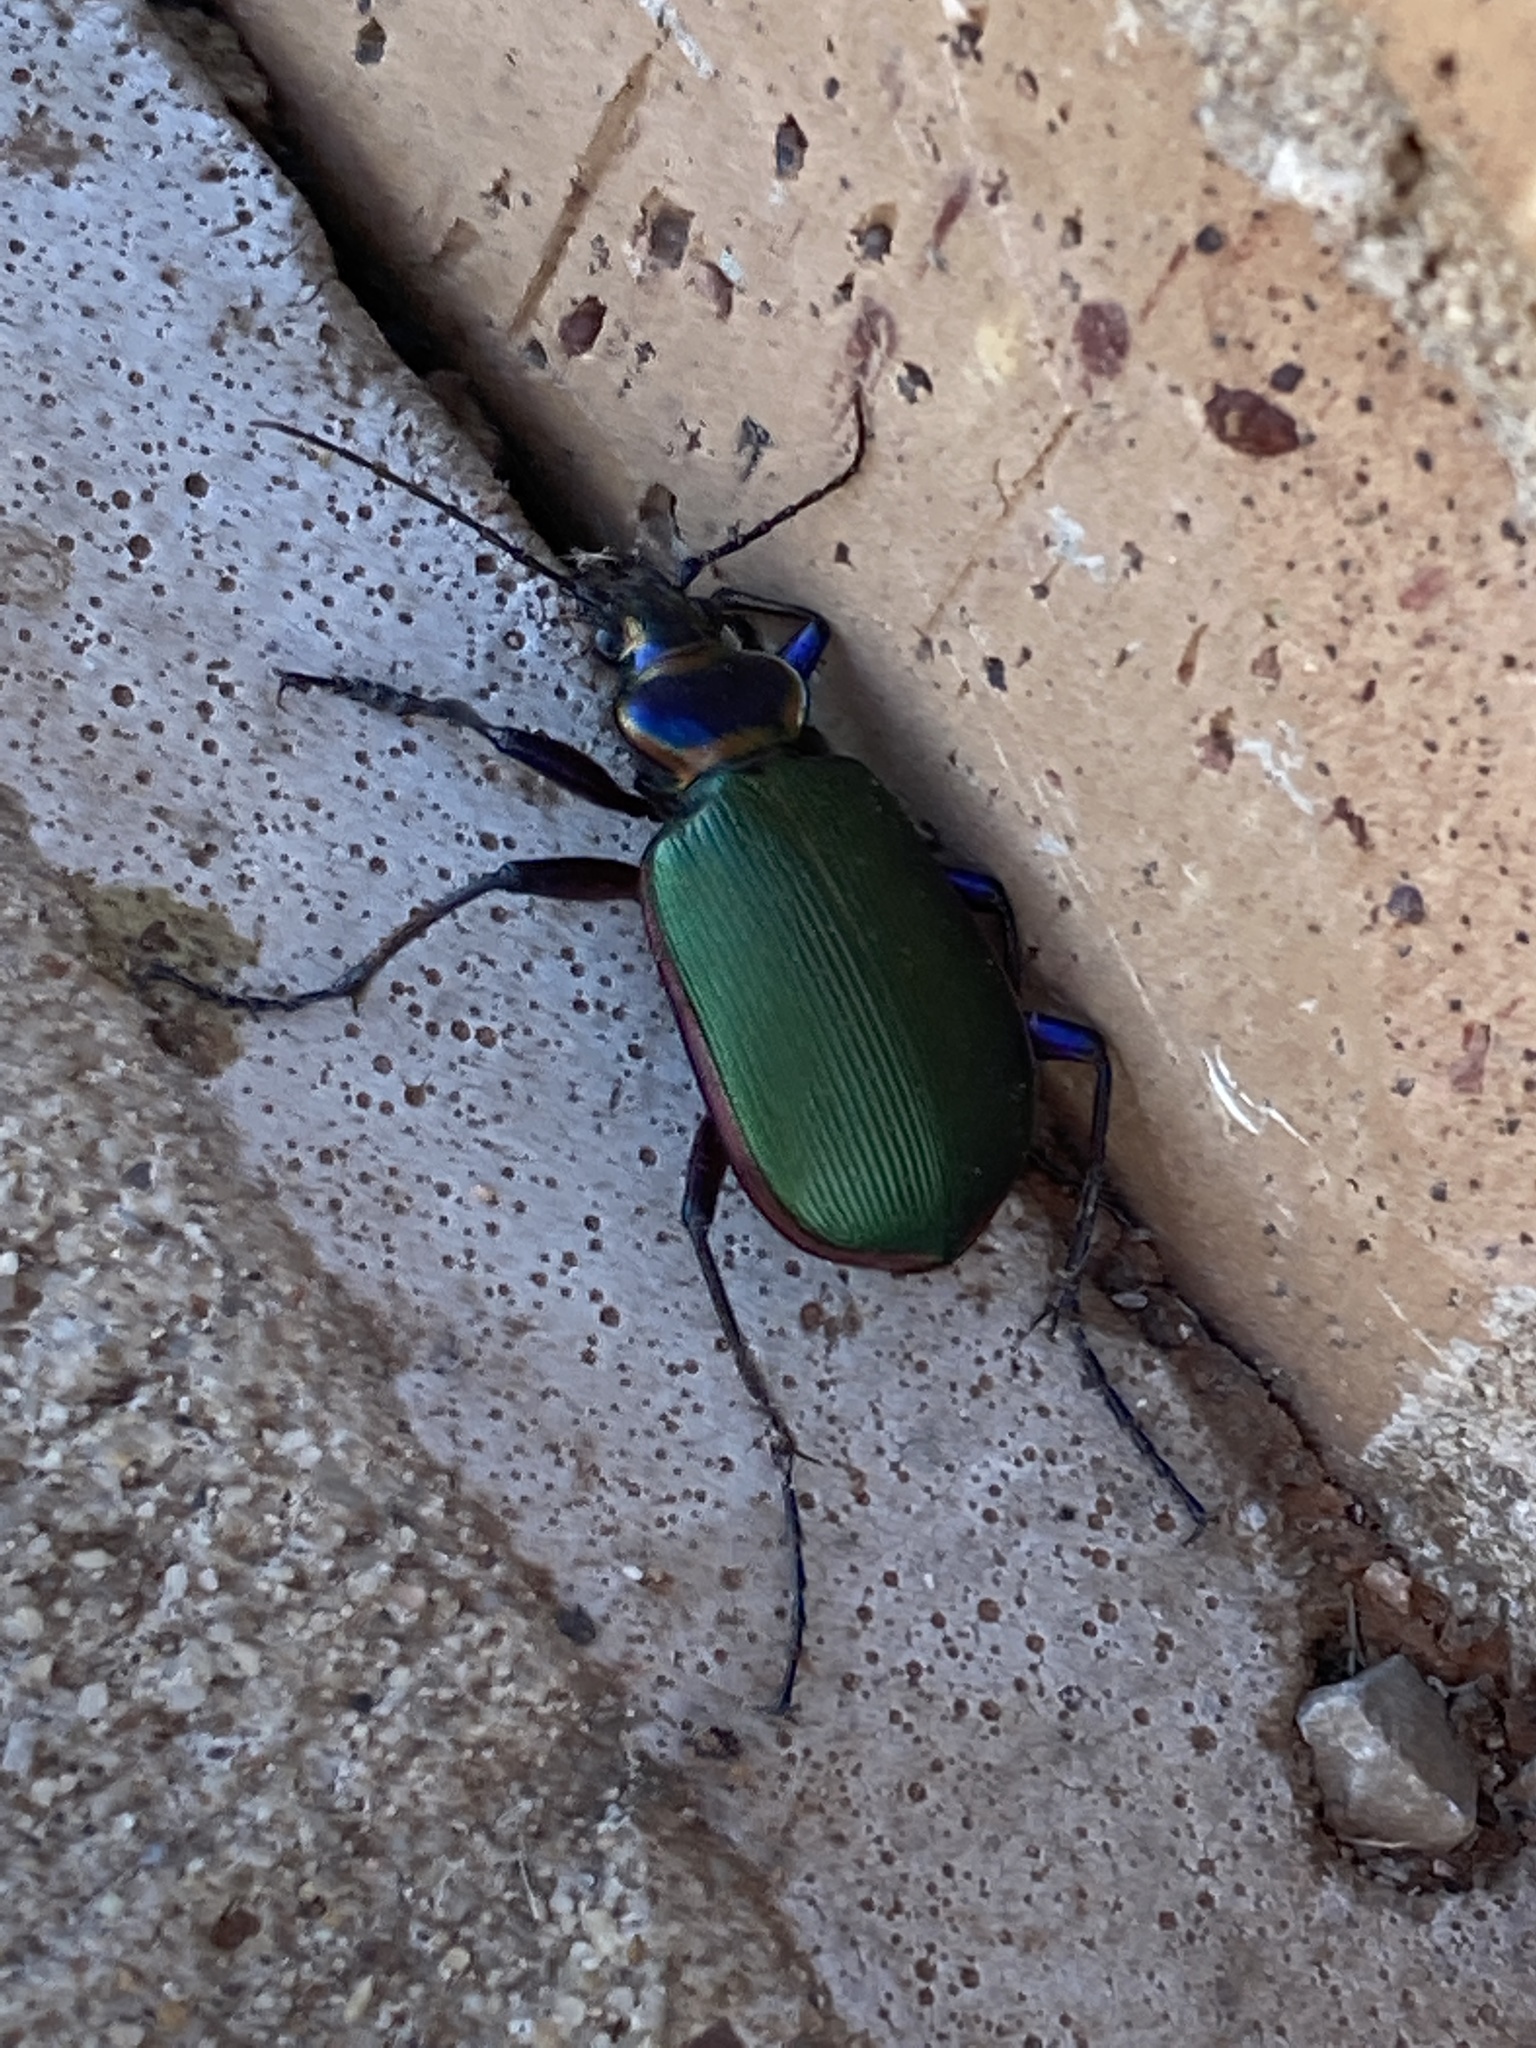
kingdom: Animalia
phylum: Arthropoda
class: Insecta
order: Coleoptera
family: Carabidae
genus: Calosoma
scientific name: Calosoma scrutator
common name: Fiery searcher beetle
